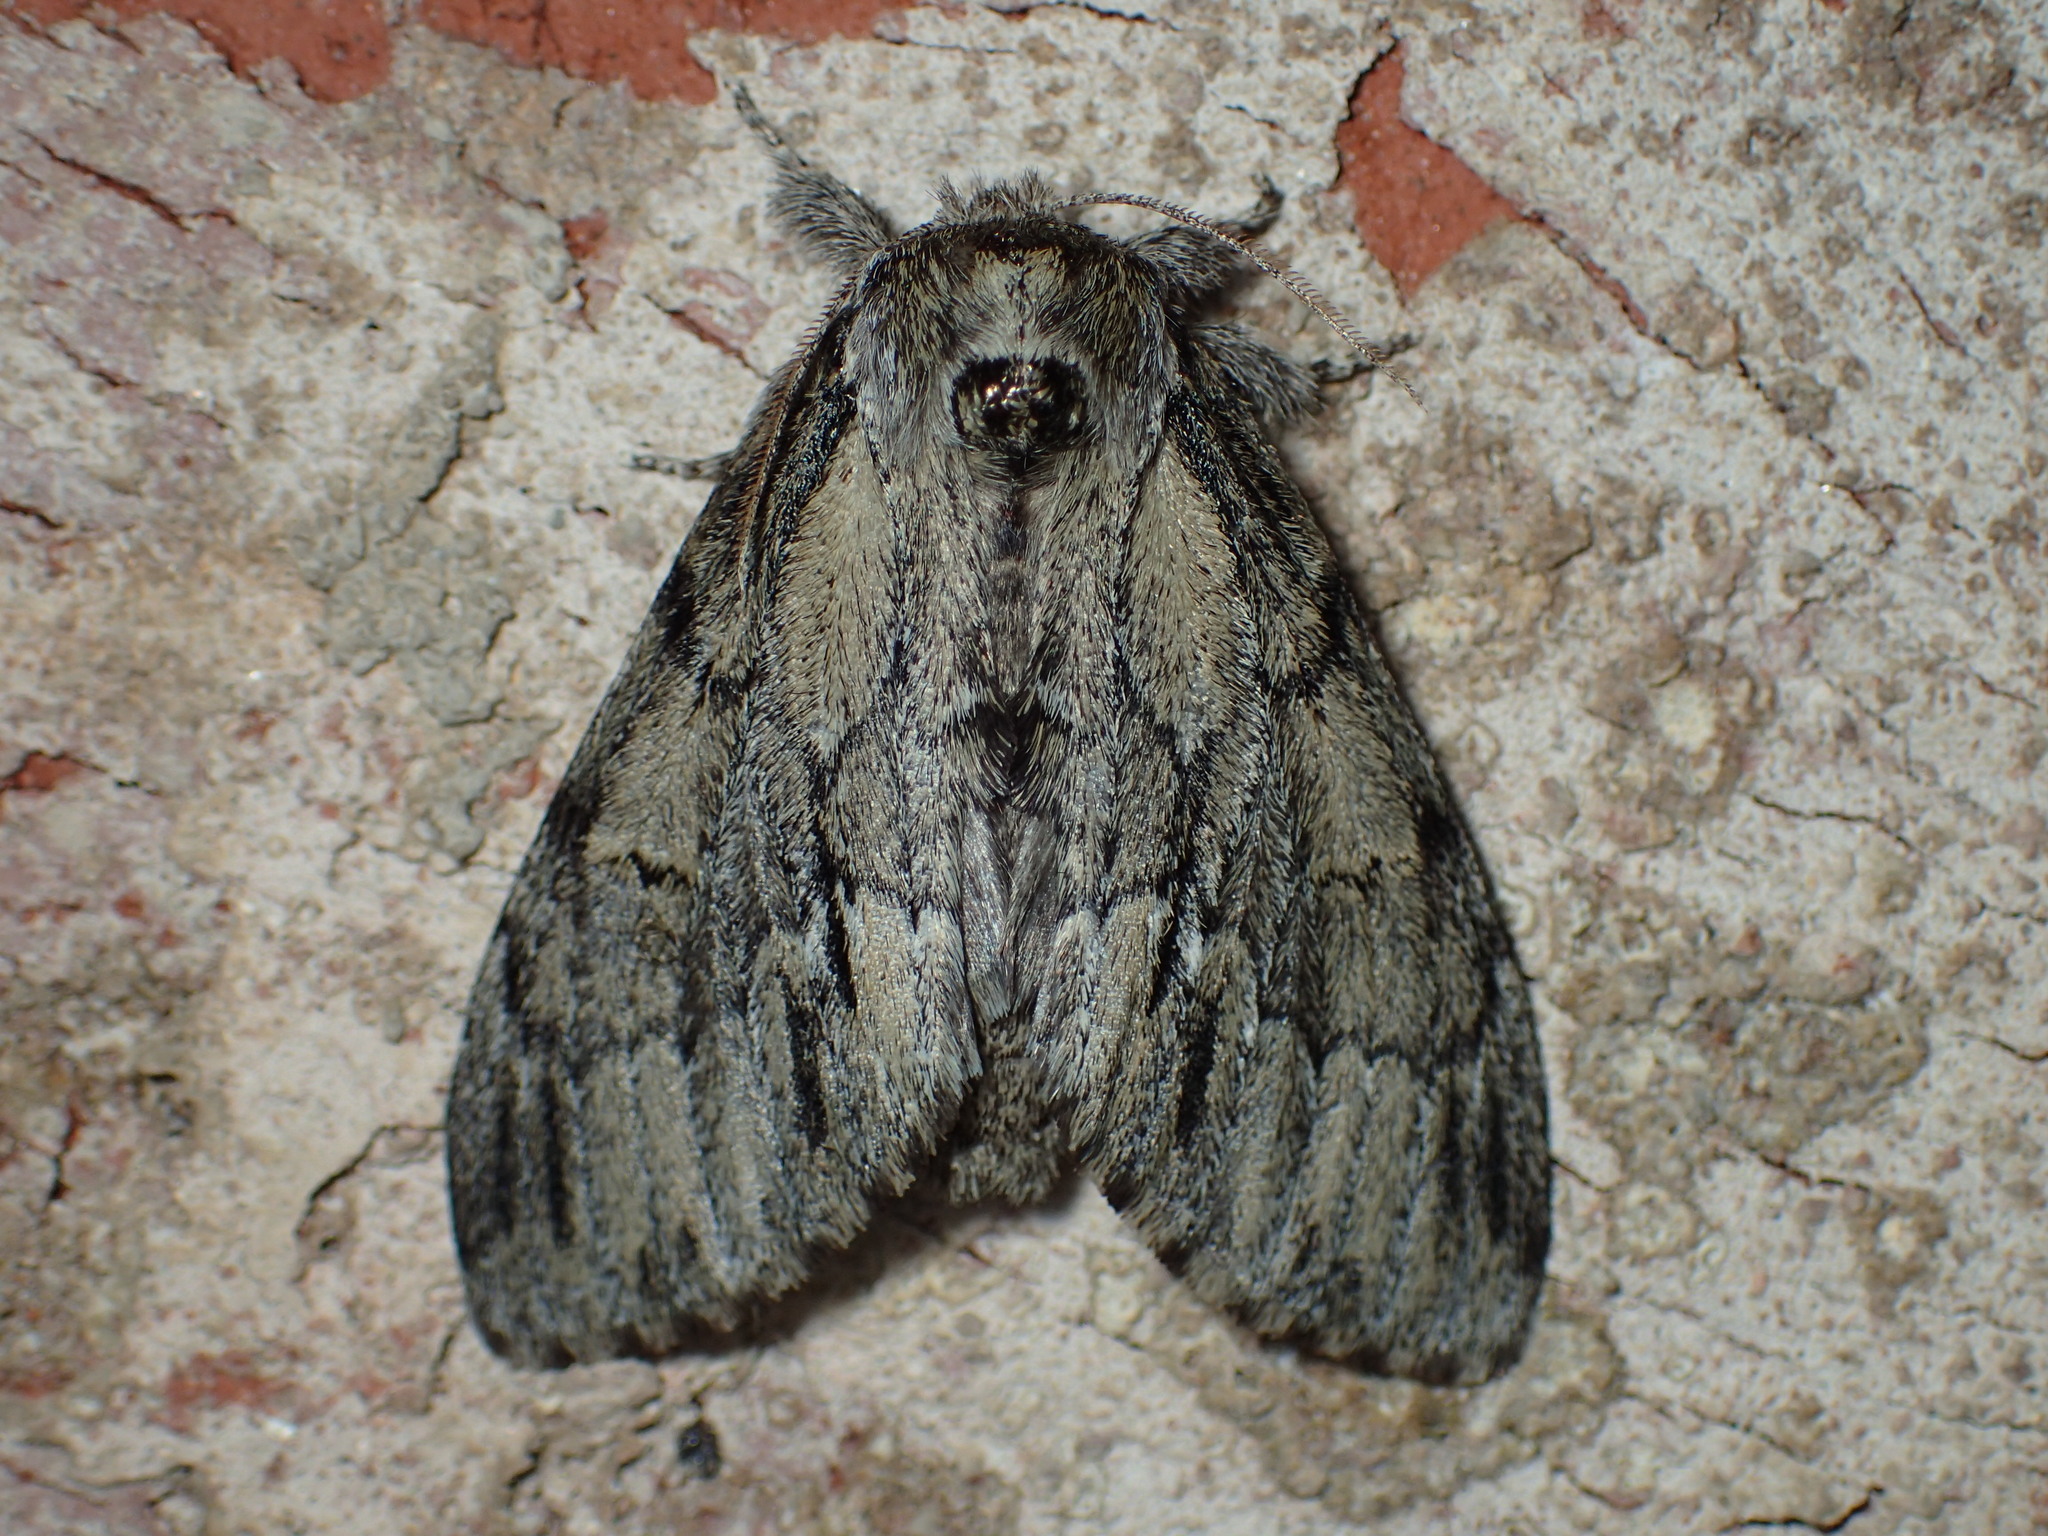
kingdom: Animalia
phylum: Arthropoda
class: Insecta
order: Lepidoptera
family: Notodontidae
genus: Paraeschra
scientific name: Paraeschra georgica
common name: Georgian prominent
